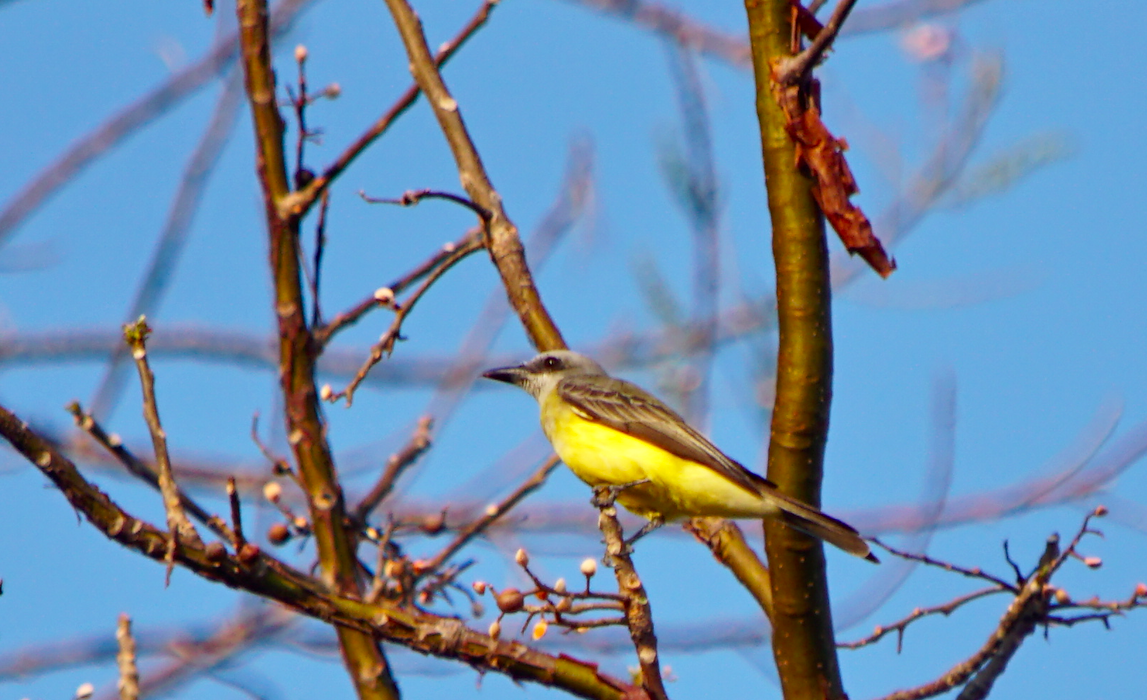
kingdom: Animalia
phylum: Chordata
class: Aves
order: Passeriformes
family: Tyrannidae
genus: Tyrannus
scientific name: Tyrannus melancholicus
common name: Tropical kingbird
